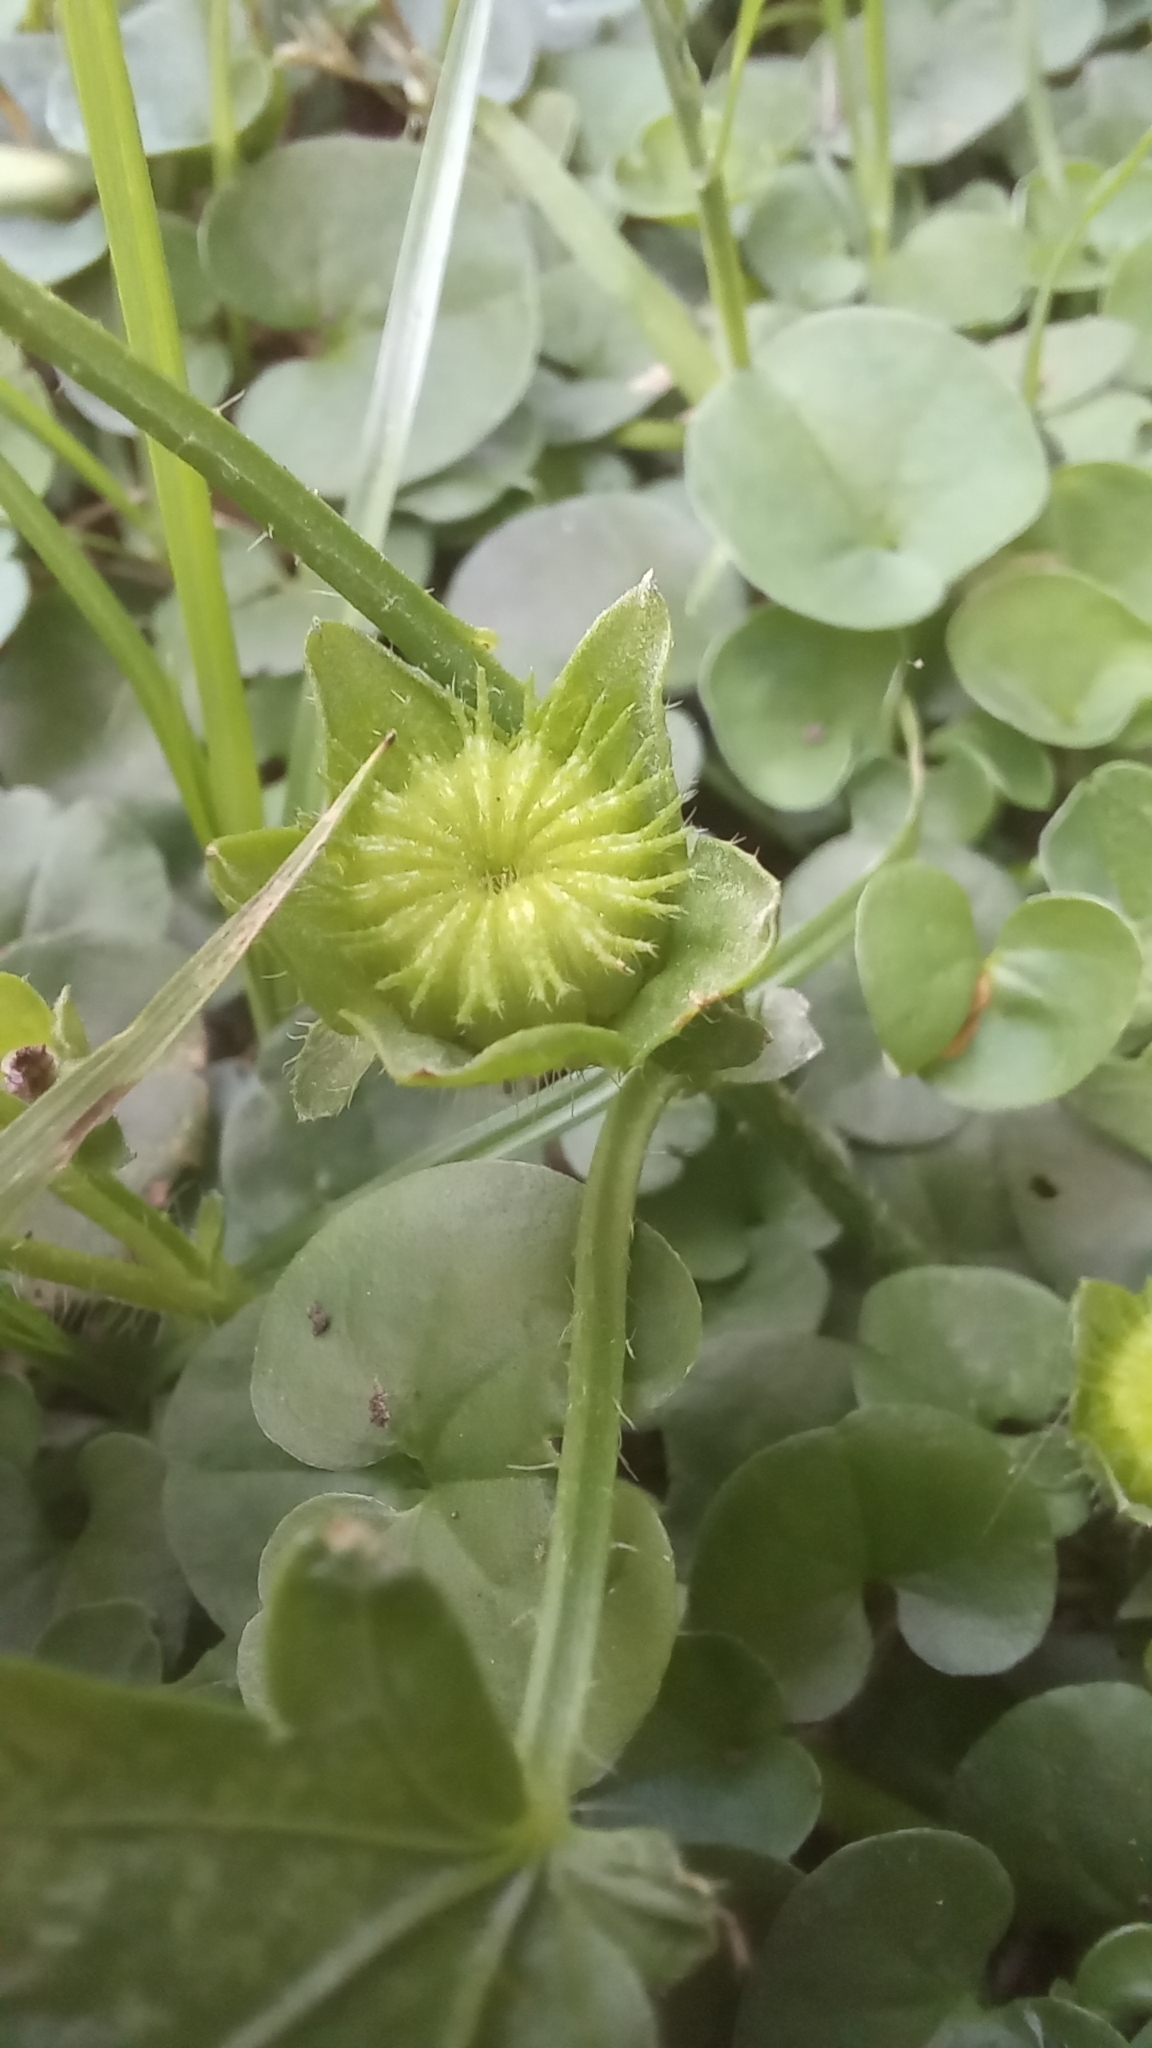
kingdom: Plantae
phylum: Tracheophyta
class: Magnoliopsida
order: Malvales
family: Malvaceae
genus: Modiola
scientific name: Modiola caroliniana
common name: Carolina bristlemallow
